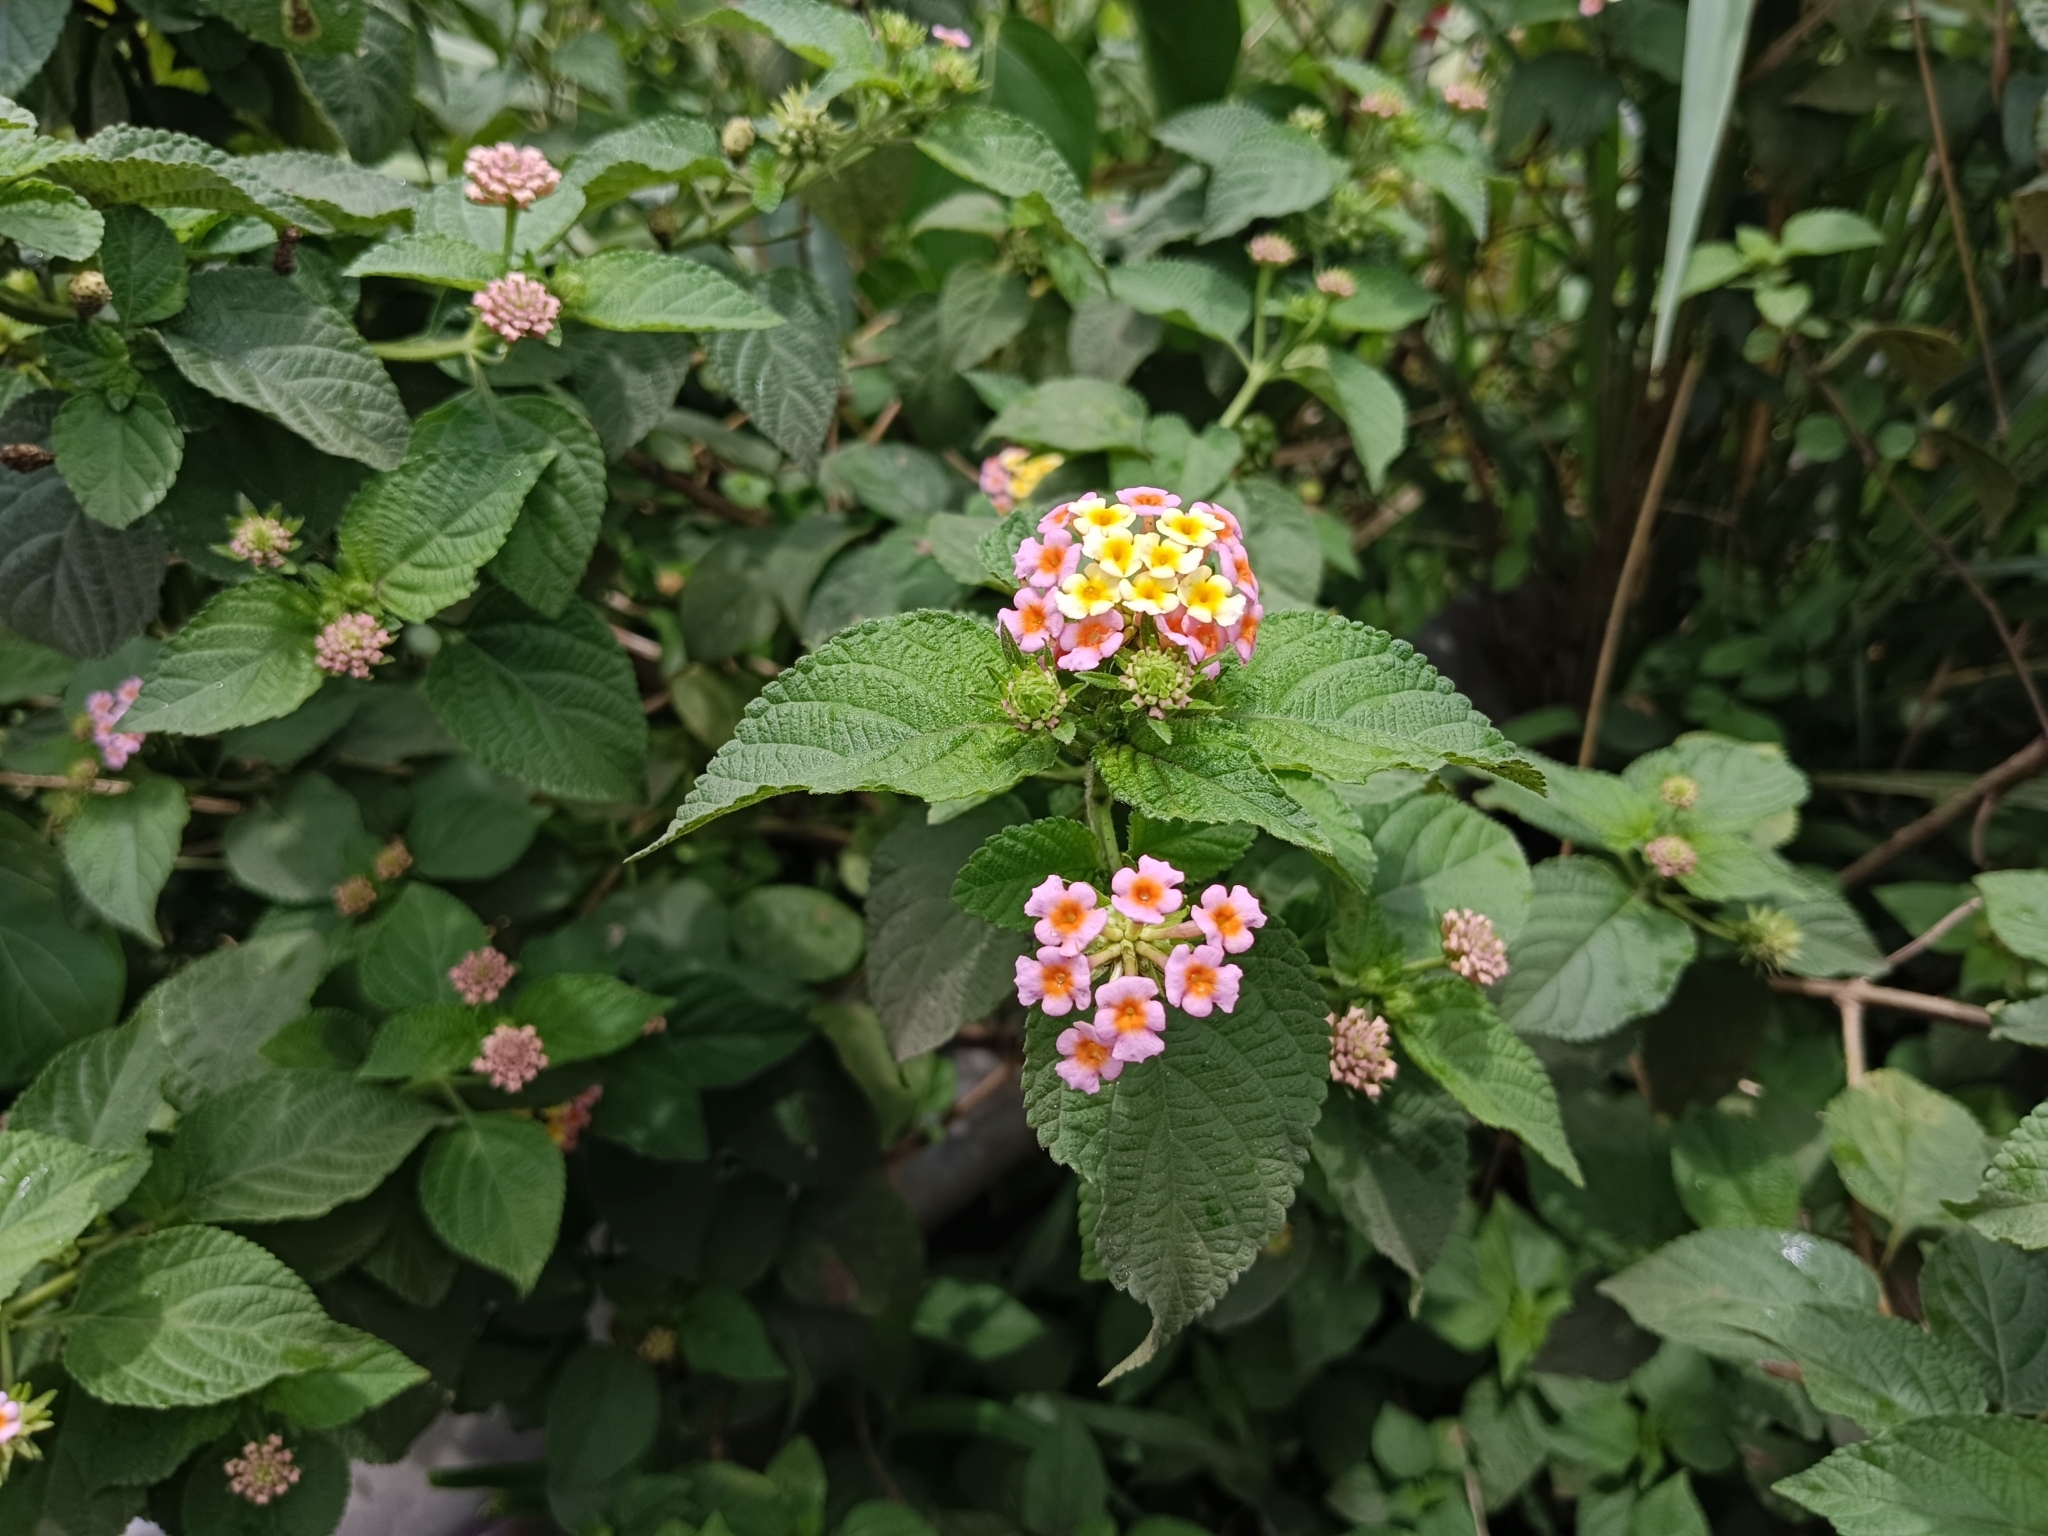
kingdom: Plantae
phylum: Tracheophyta
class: Magnoliopsida
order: Lamiales
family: Verbenaceae
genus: Lantana
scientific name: Lantana camara
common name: Lantana
